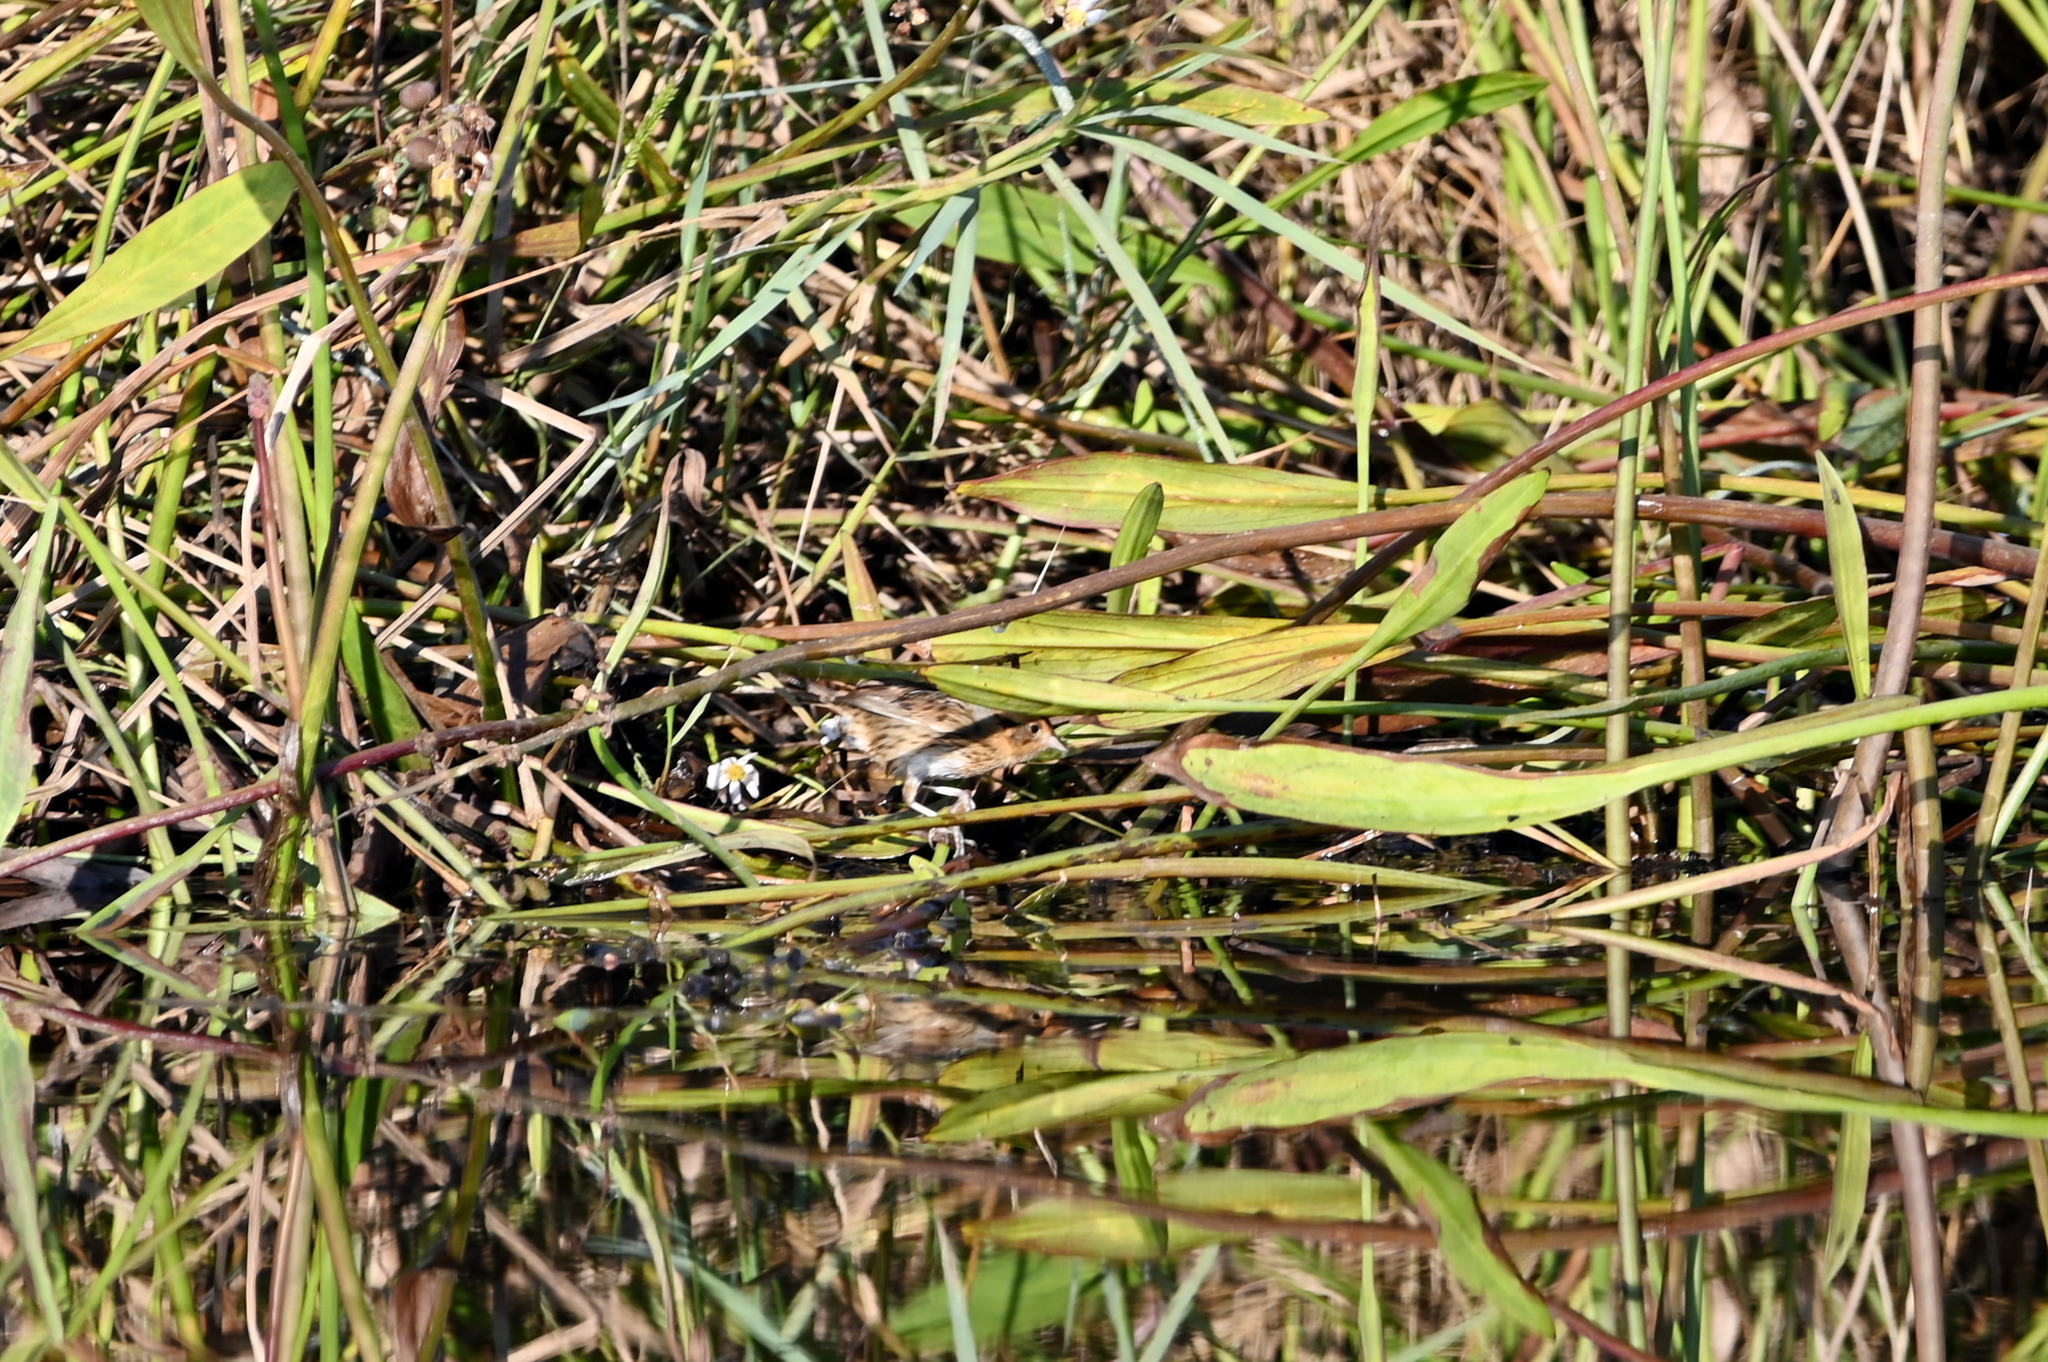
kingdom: Animalia
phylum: Chordata
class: Aves
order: Passeriformes
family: Passerellidae
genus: Ammospiza
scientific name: Ammospiza nelsoni
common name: Nelson's sparrow
